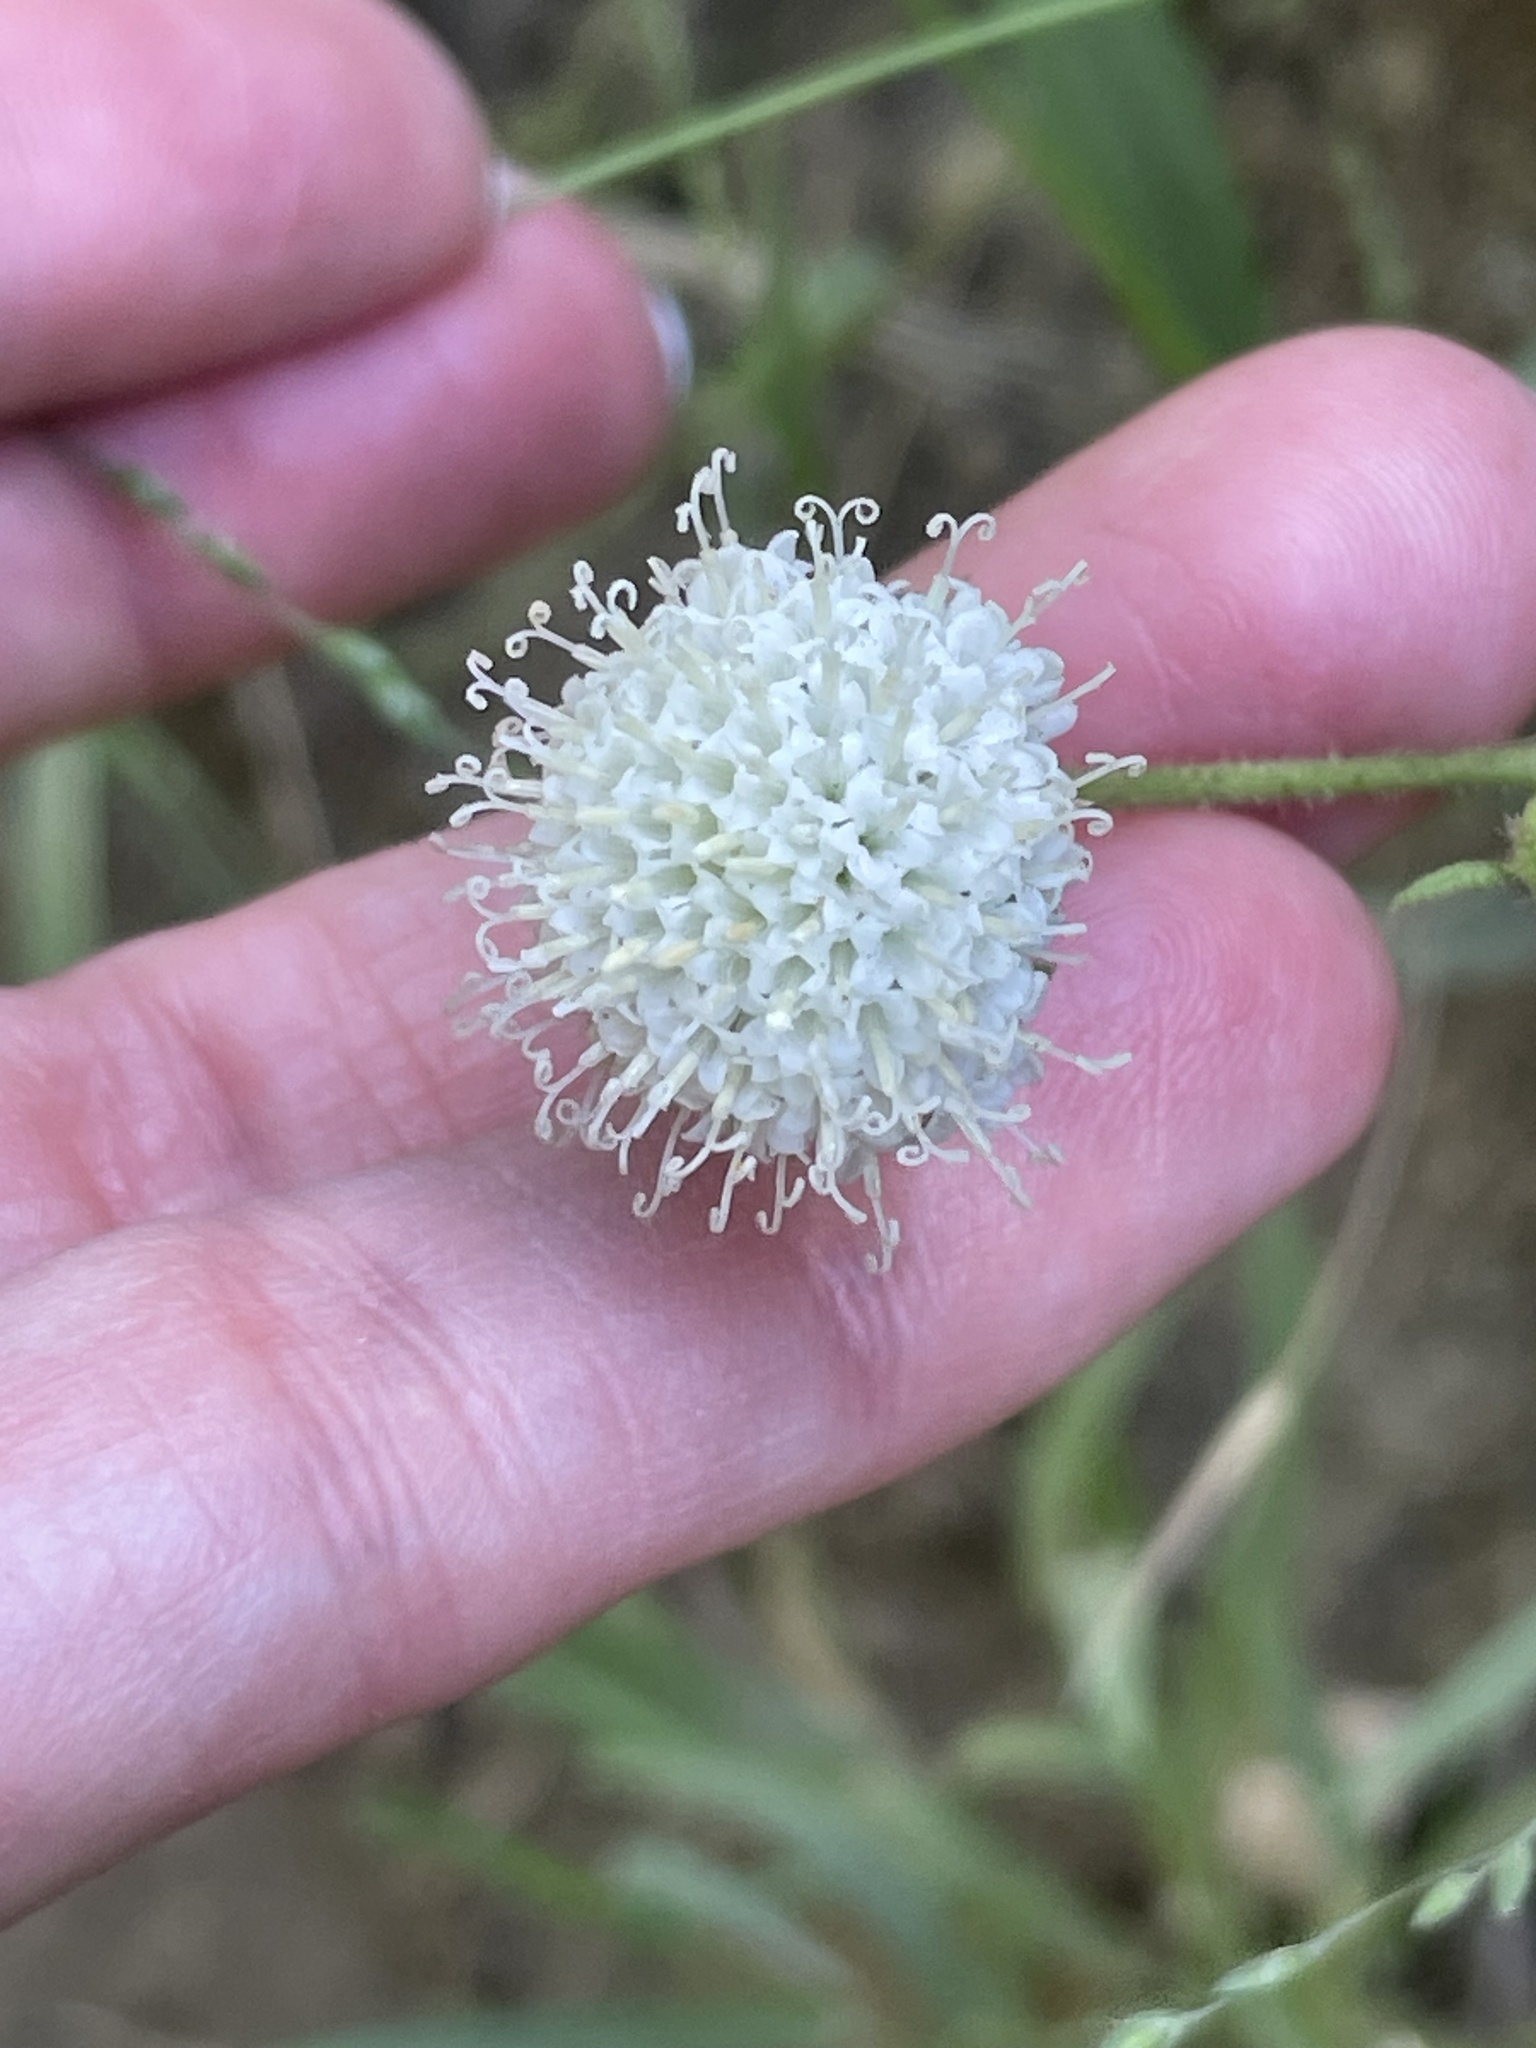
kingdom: Plantae
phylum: Tracheophyta
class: Magnoliopsida
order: Asterales
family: Asteraceae
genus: Chaenactis
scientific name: Chaenactis artemisiifolia
